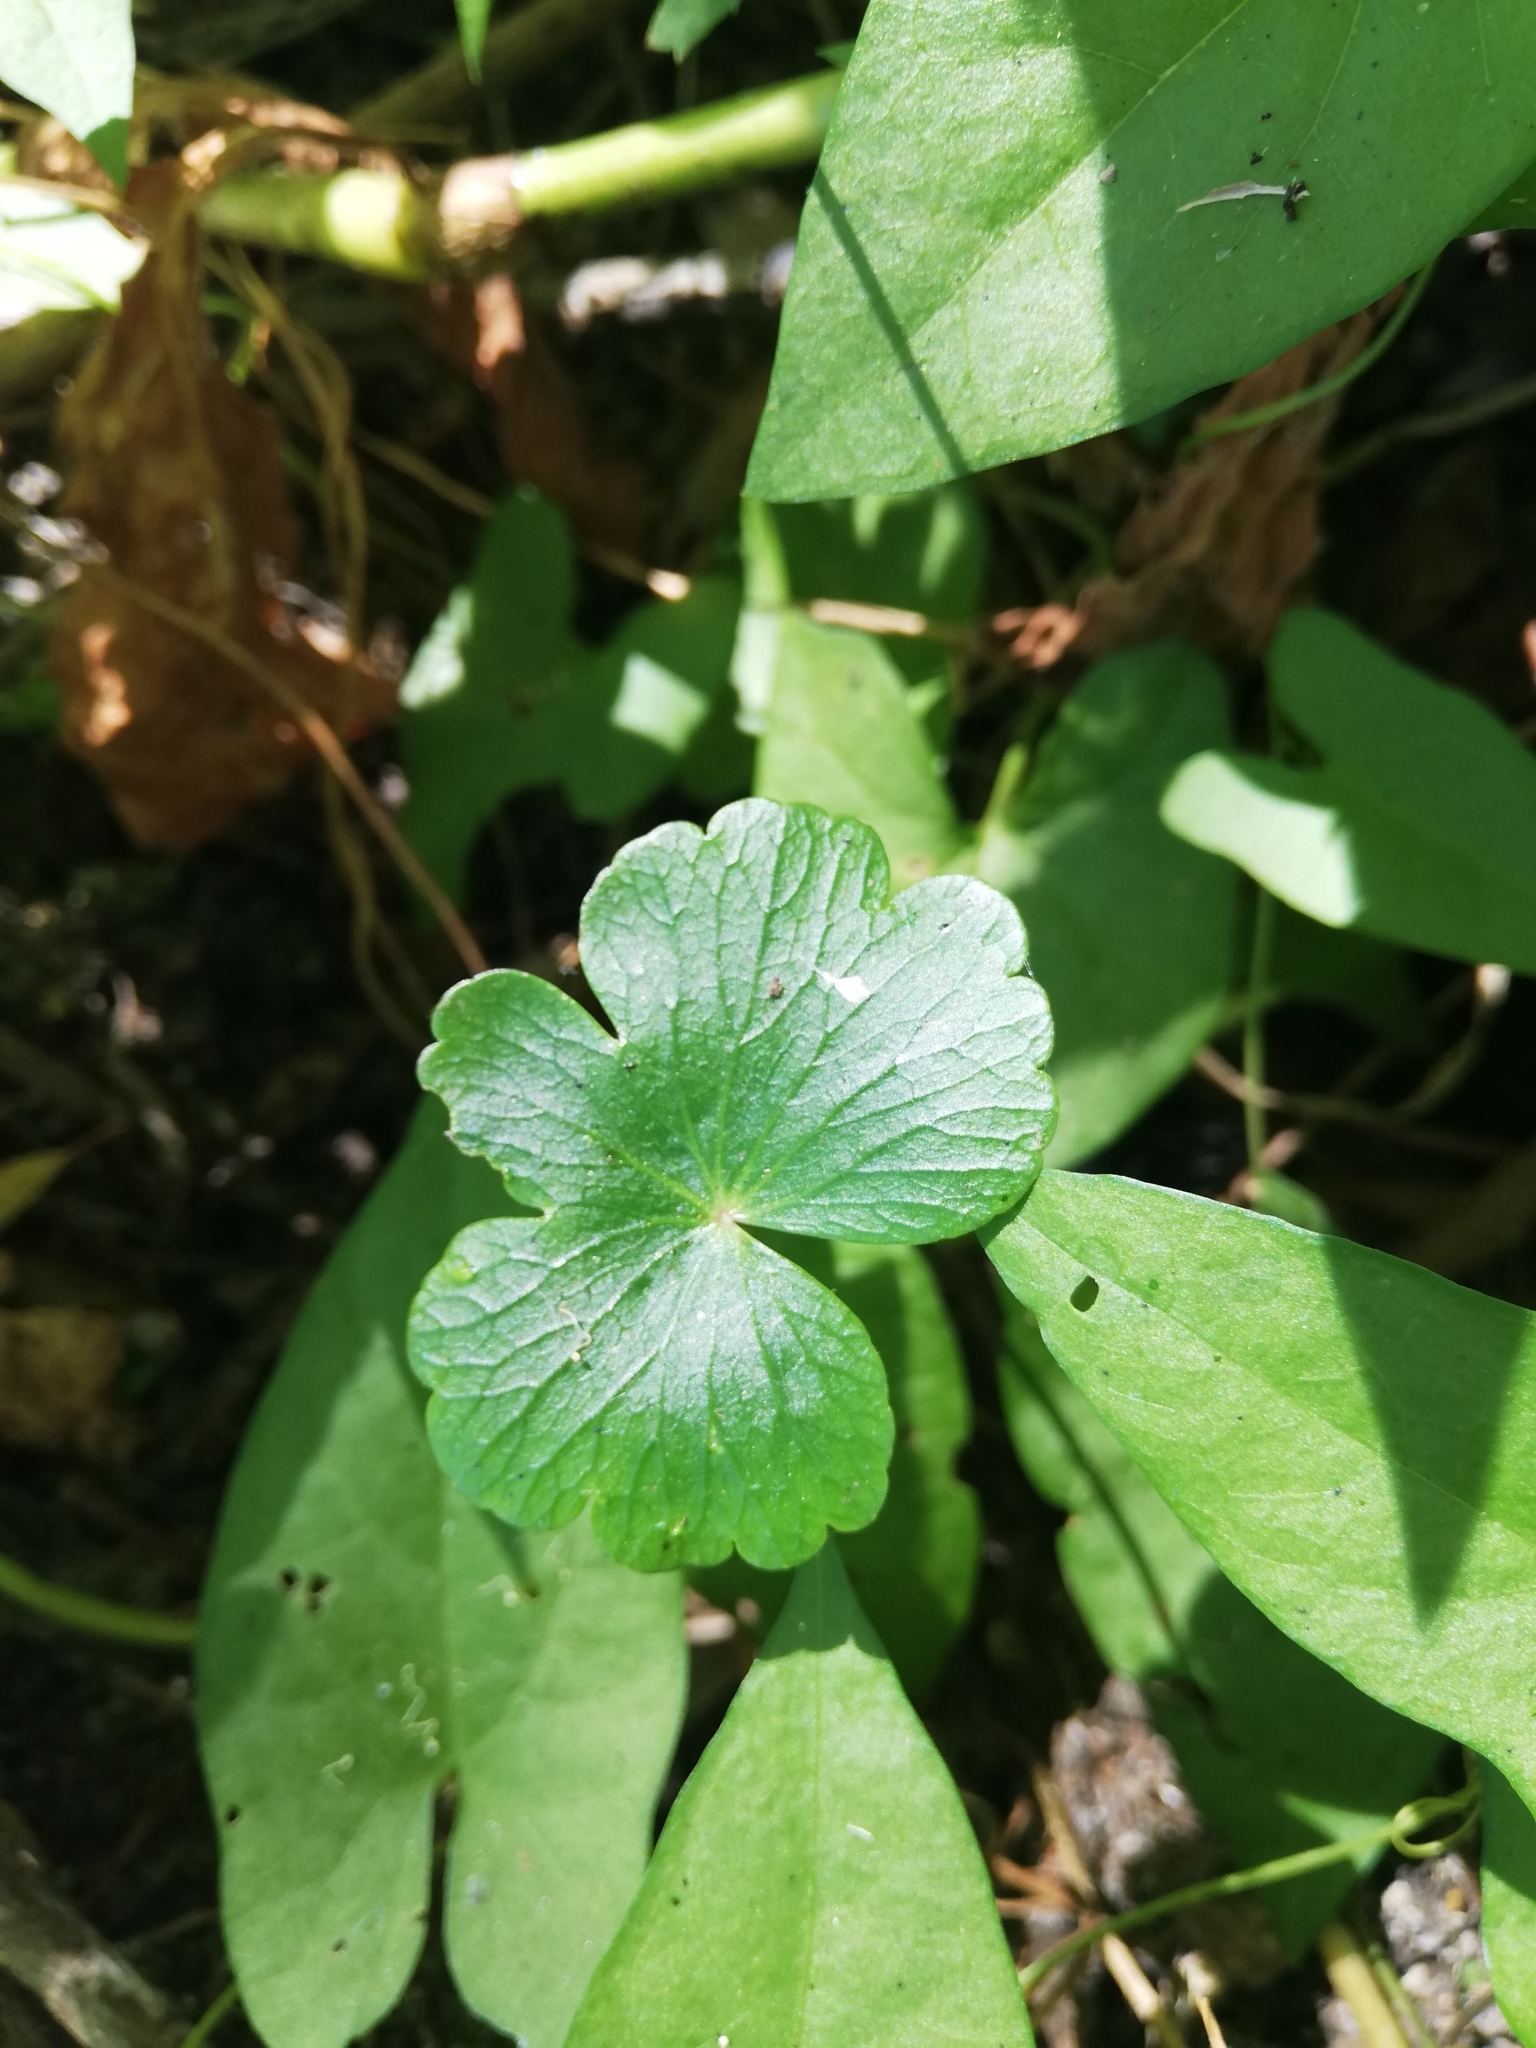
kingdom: Plantae
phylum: Tracheophyta
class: Magnoliopsida
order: Apiales
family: Araliaceae
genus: Hydrocotyle
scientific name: Hydrocotyle ranunculoides
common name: Floating pennywort
